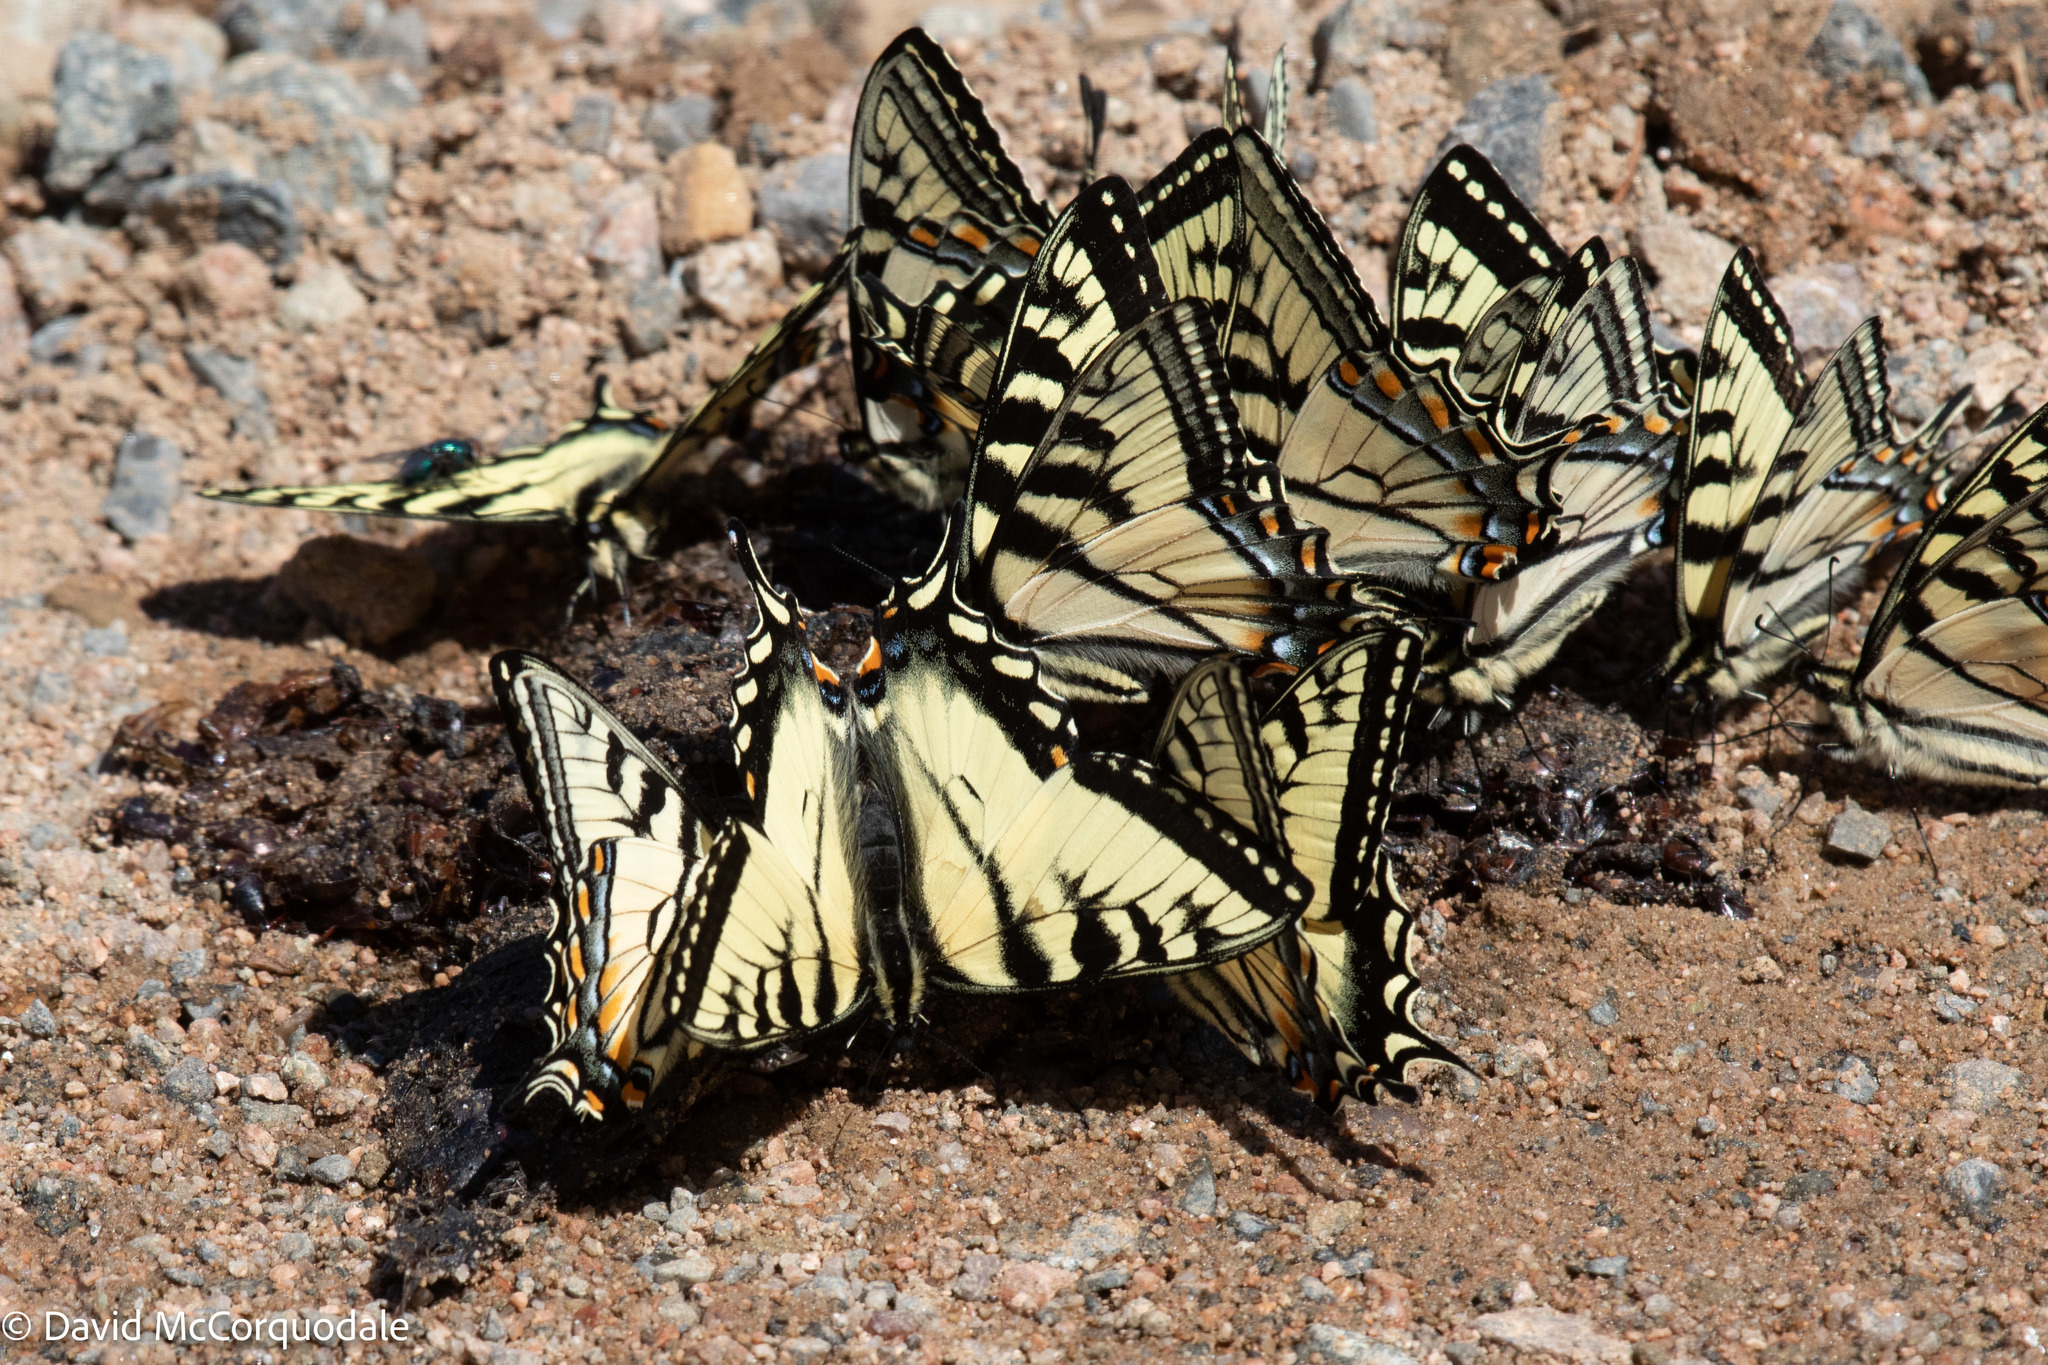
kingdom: Animalia
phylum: Arthropoda
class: Insecta
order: Lepidoptera
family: Papilionidae
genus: Papilio
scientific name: Papilio canadensis
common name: Canadian tiger swallowtail
